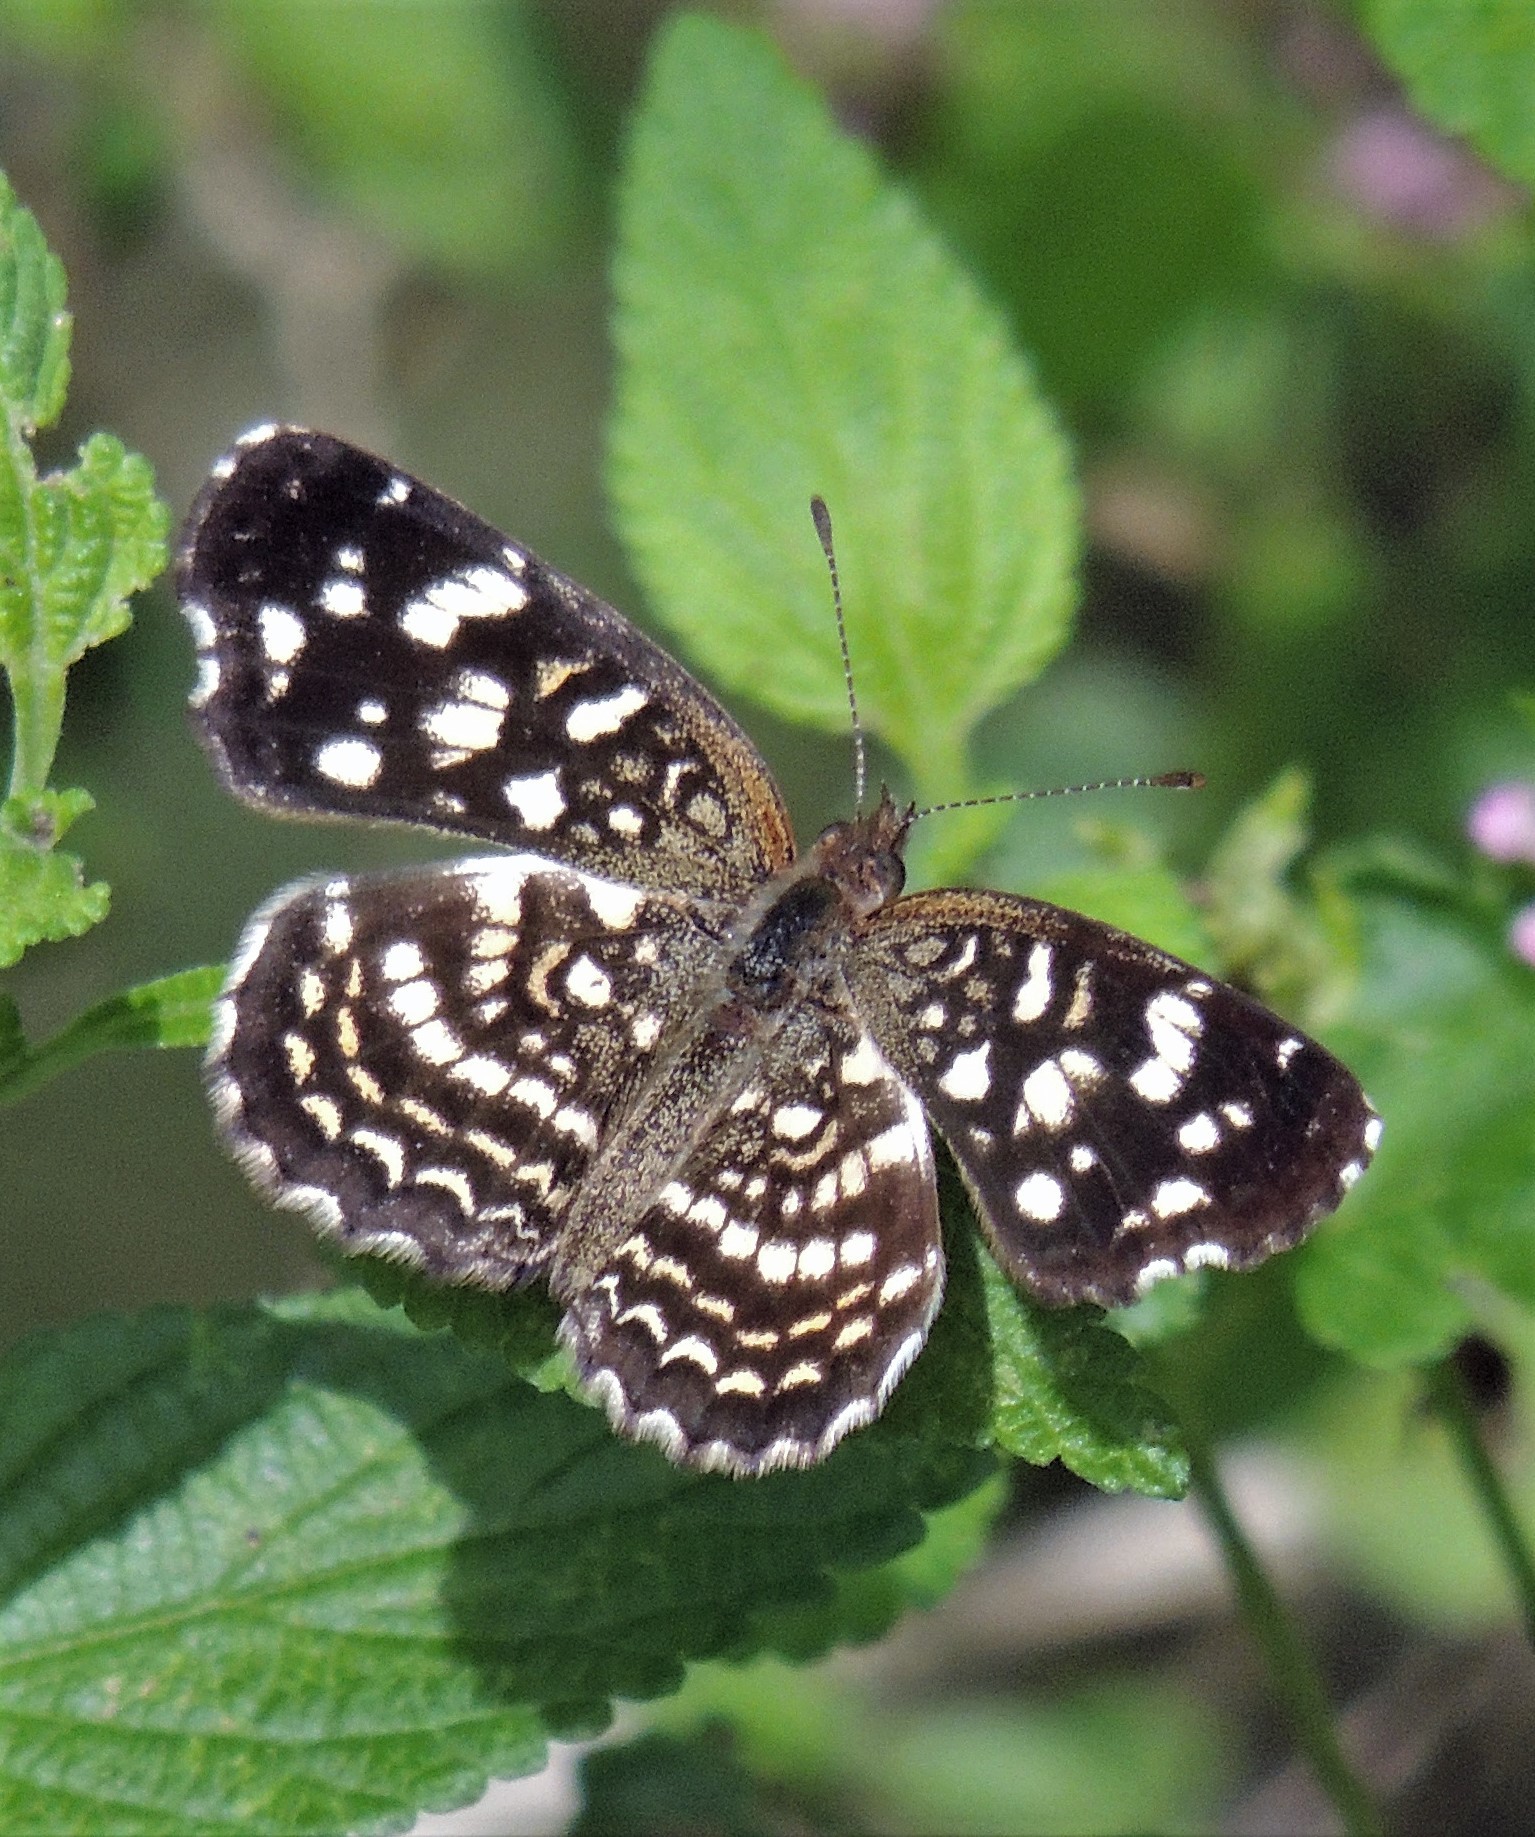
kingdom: Animalia
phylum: Arthropoda
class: Insecta
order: Lepidoptera
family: Nymphalidae
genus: Anthanassa
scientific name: Anthanassa hermas
